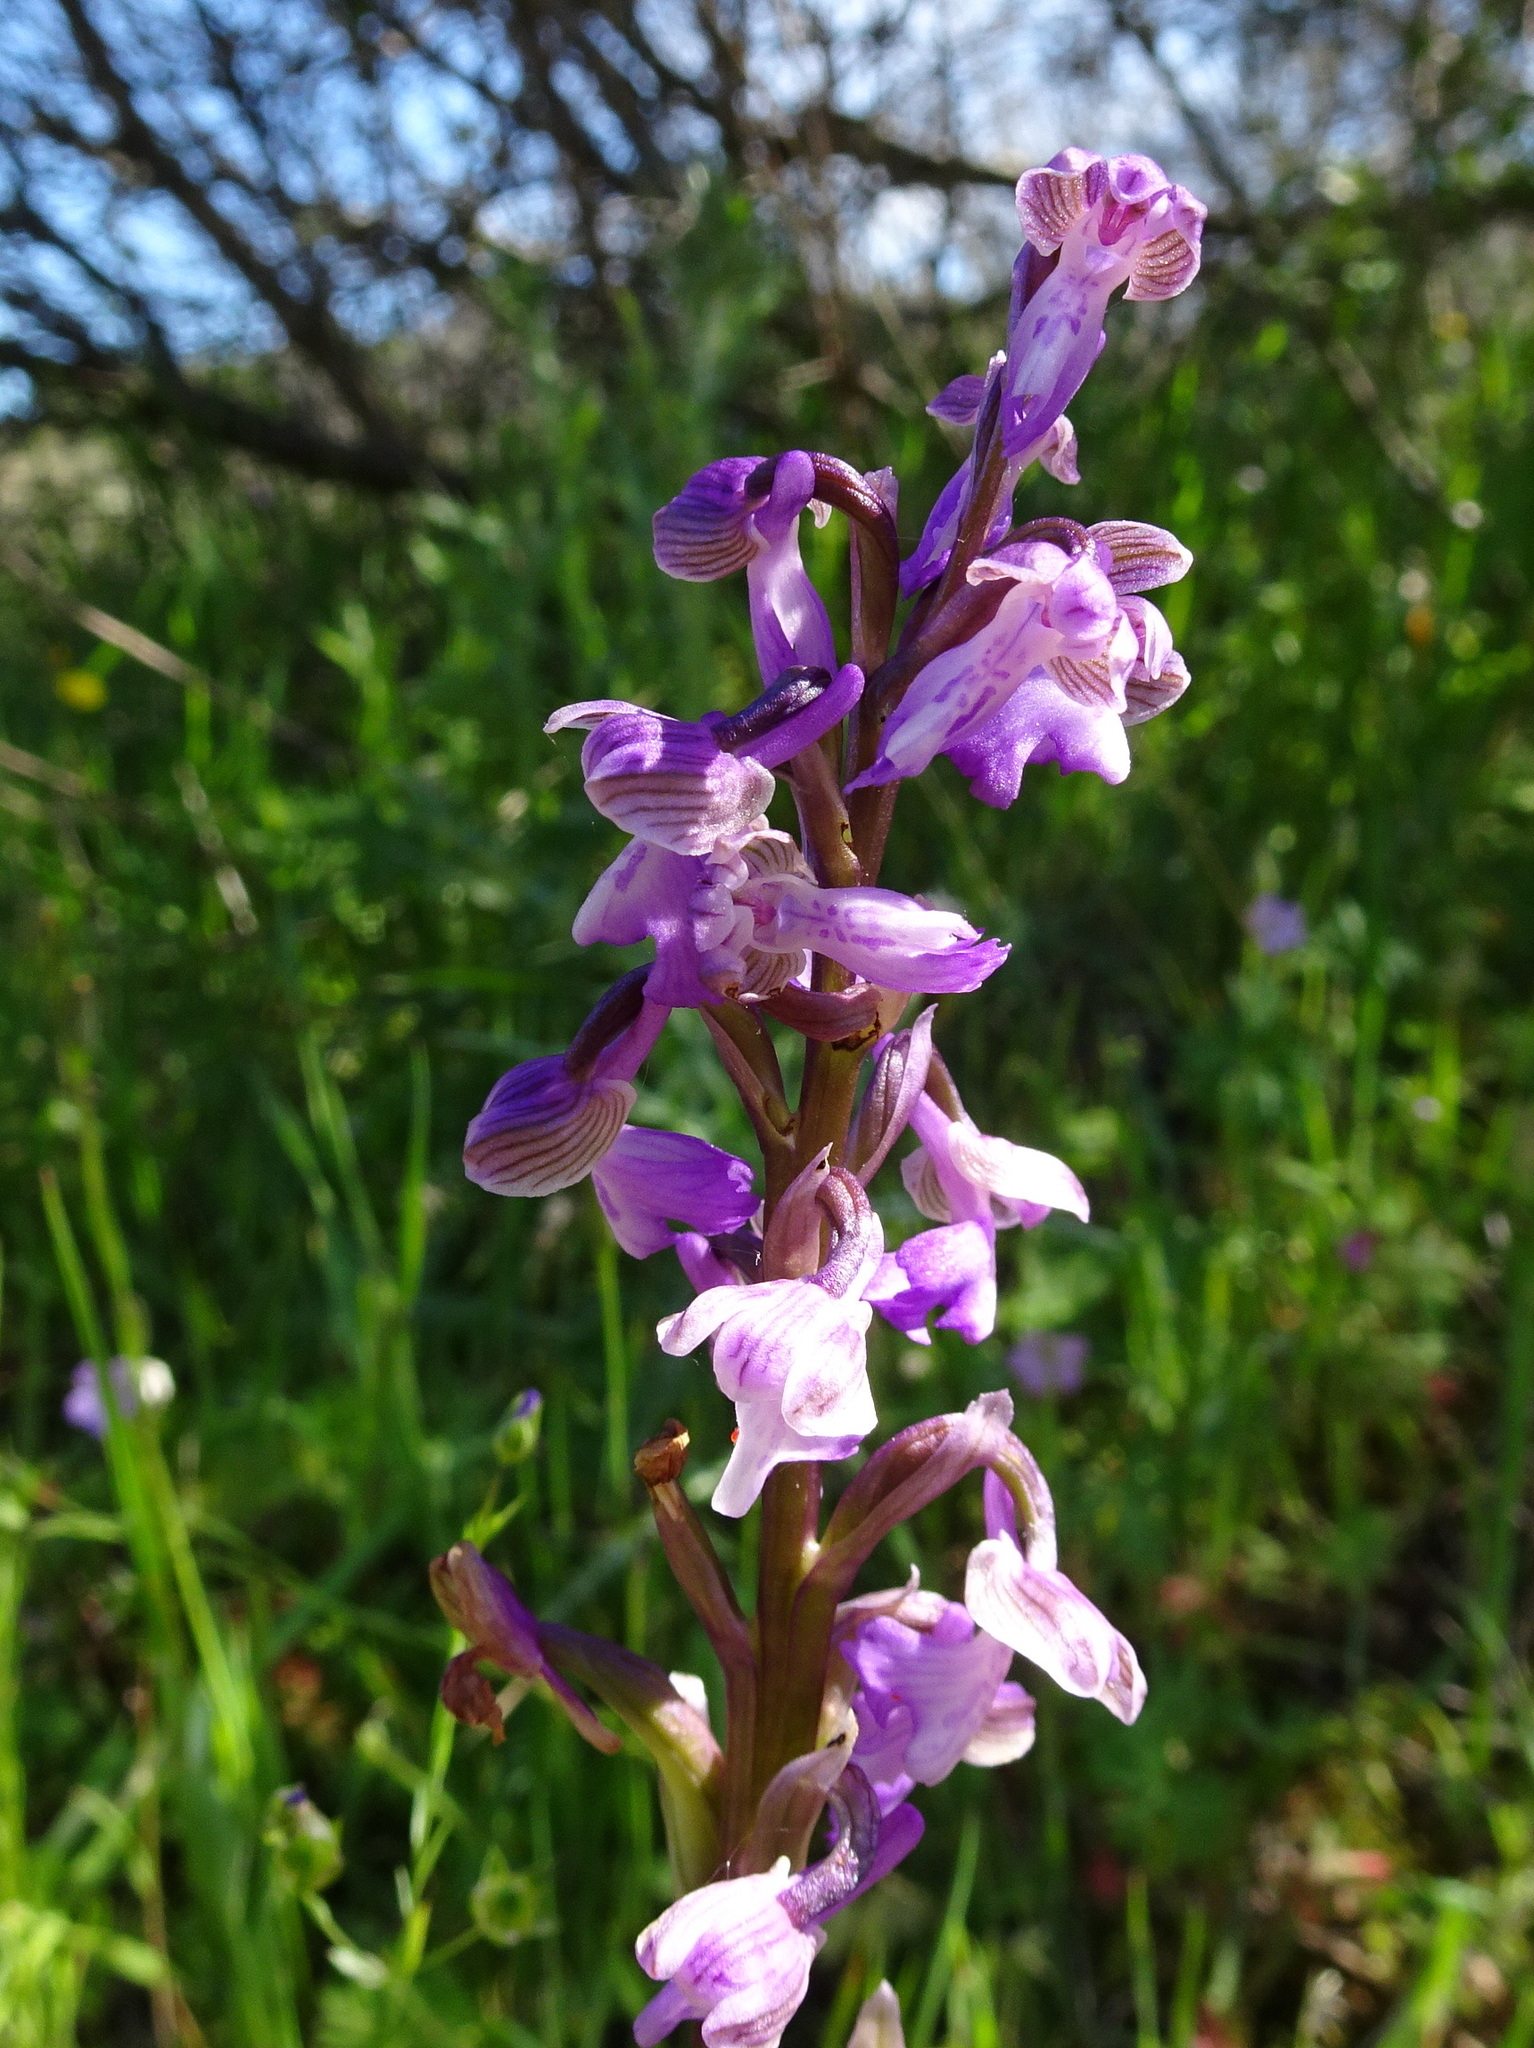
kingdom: Plantae
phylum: Tracheophyta
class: Liliopsida
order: Asparagales
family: Orchidaceae
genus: Anacamptis
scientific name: Anacamptis morio
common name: Green-winged orchid
